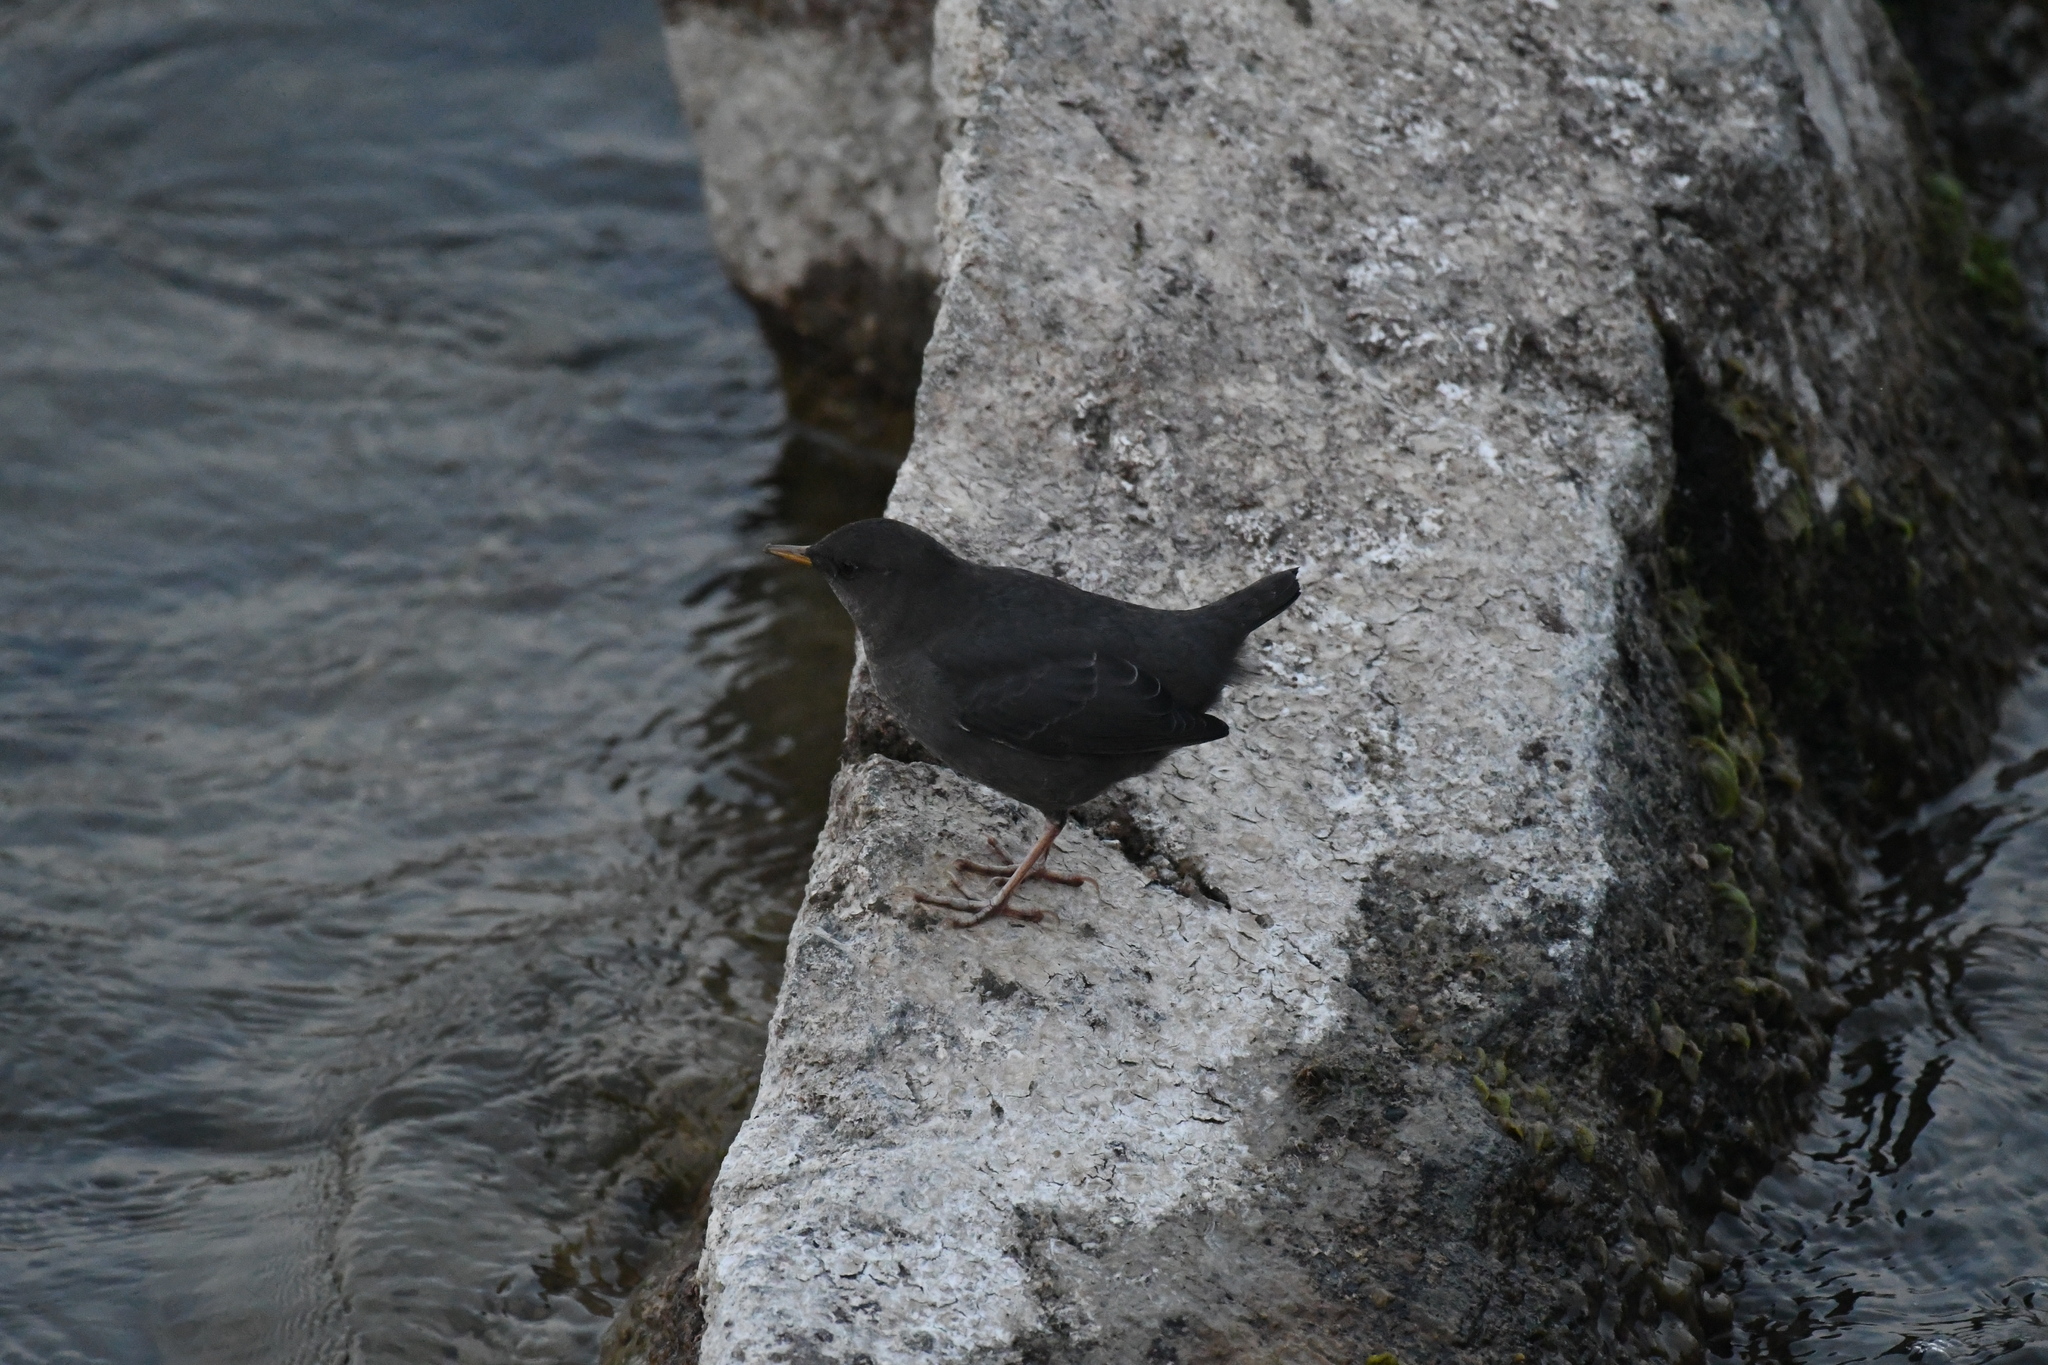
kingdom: Animalia
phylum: Chordata
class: Aves
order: Passeriformes
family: Cinclidae
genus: Cinclus
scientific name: Cinclus mexicanus
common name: American dipper
